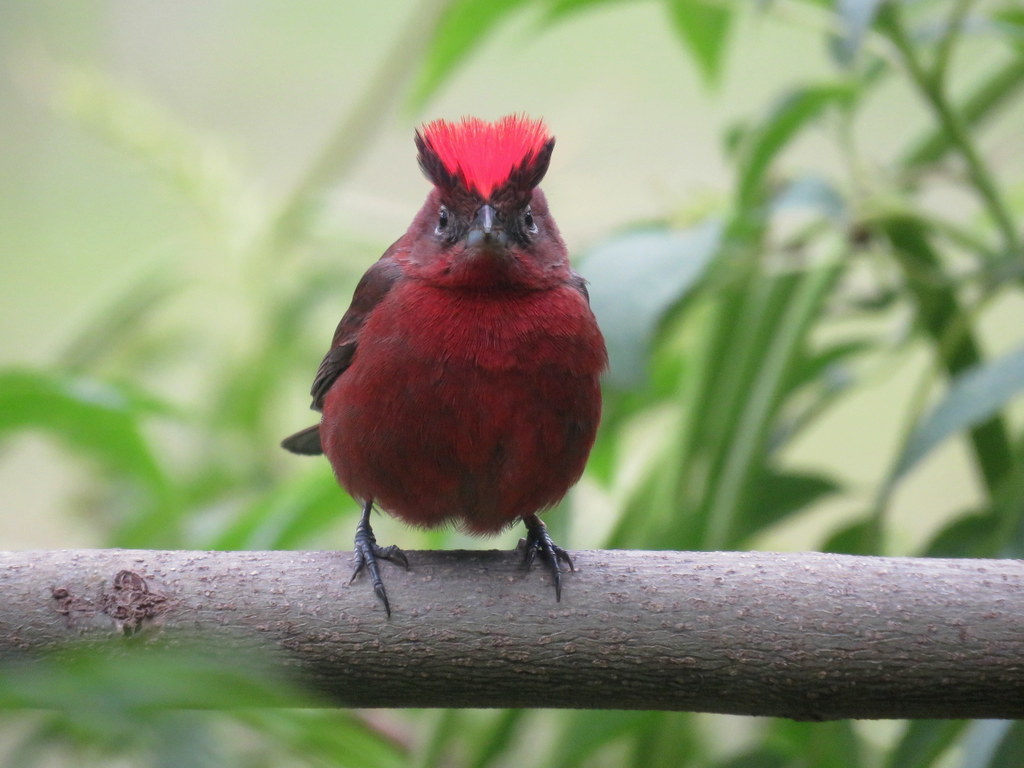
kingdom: Animalia
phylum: Chordata
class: Aves
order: Passeriformes
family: Thraupidae
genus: Coryphospingus
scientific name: Coryphospingus cucullatus
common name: Red pileated finch
